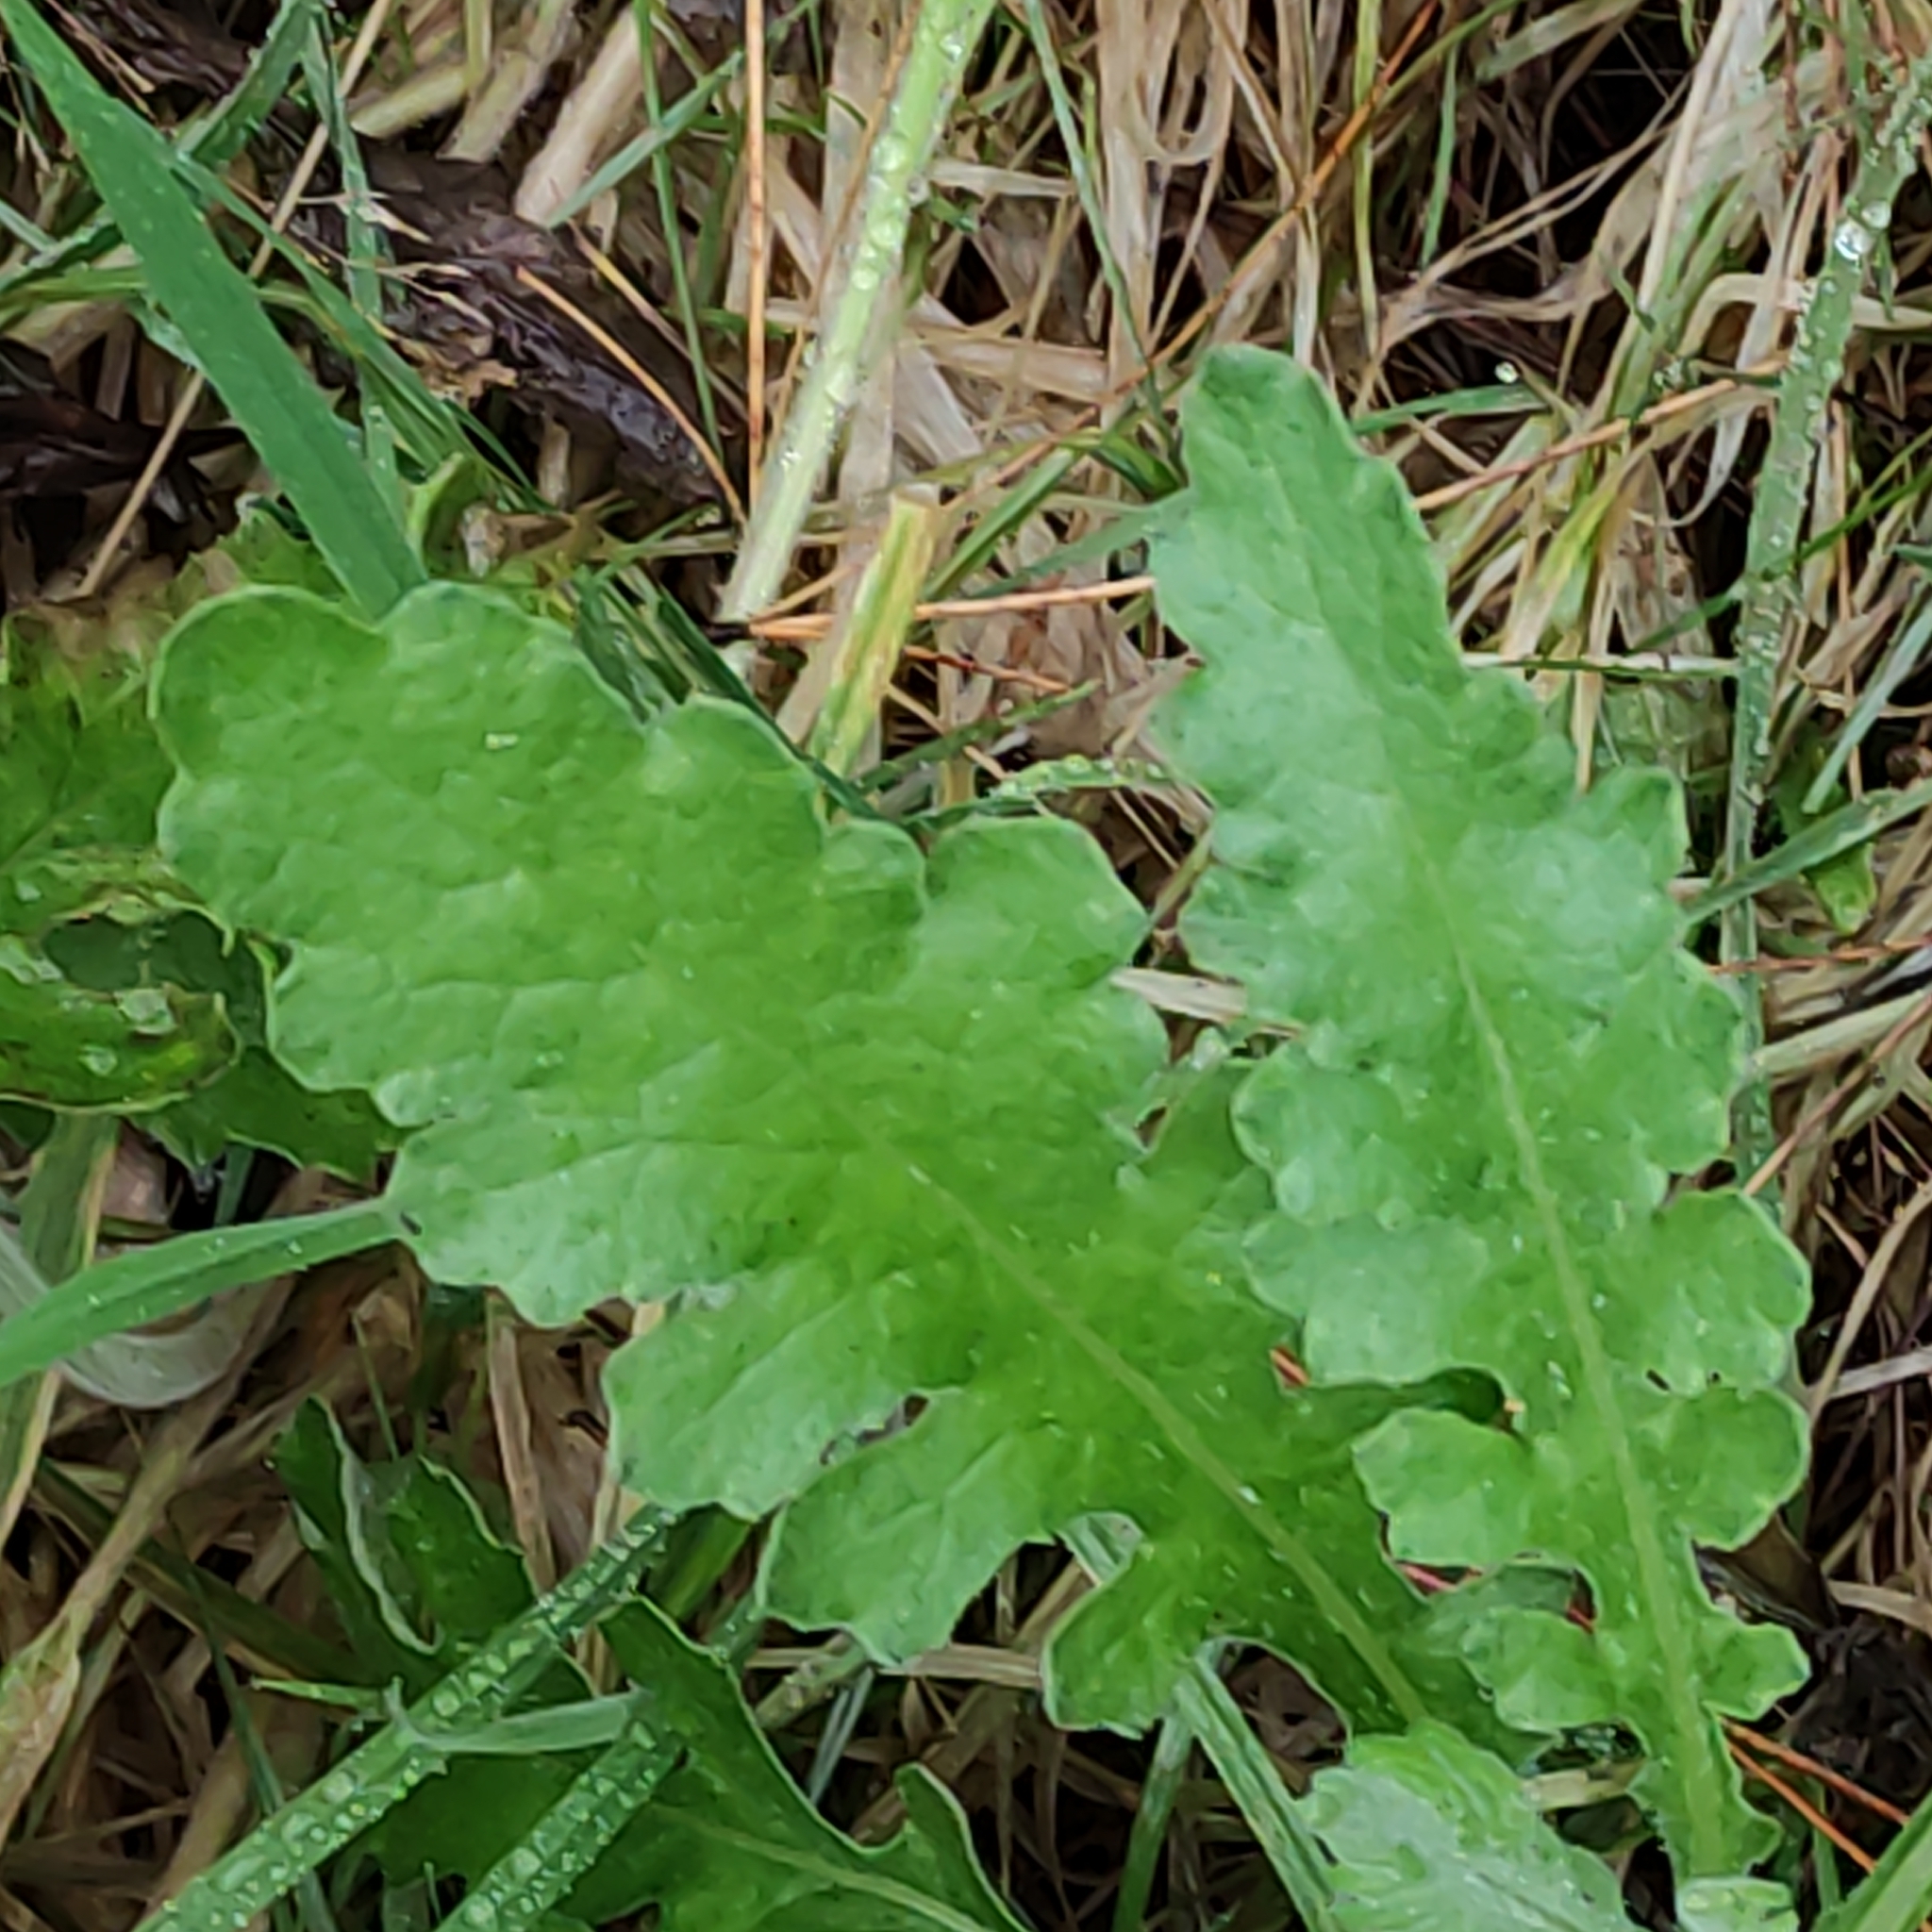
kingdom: Plantae
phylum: Tracheophyta
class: Magnoliopsida
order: Asterales
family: Asteraceae
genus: Senecio
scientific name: Senecio glomeratus
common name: Cutleaf burnweed
